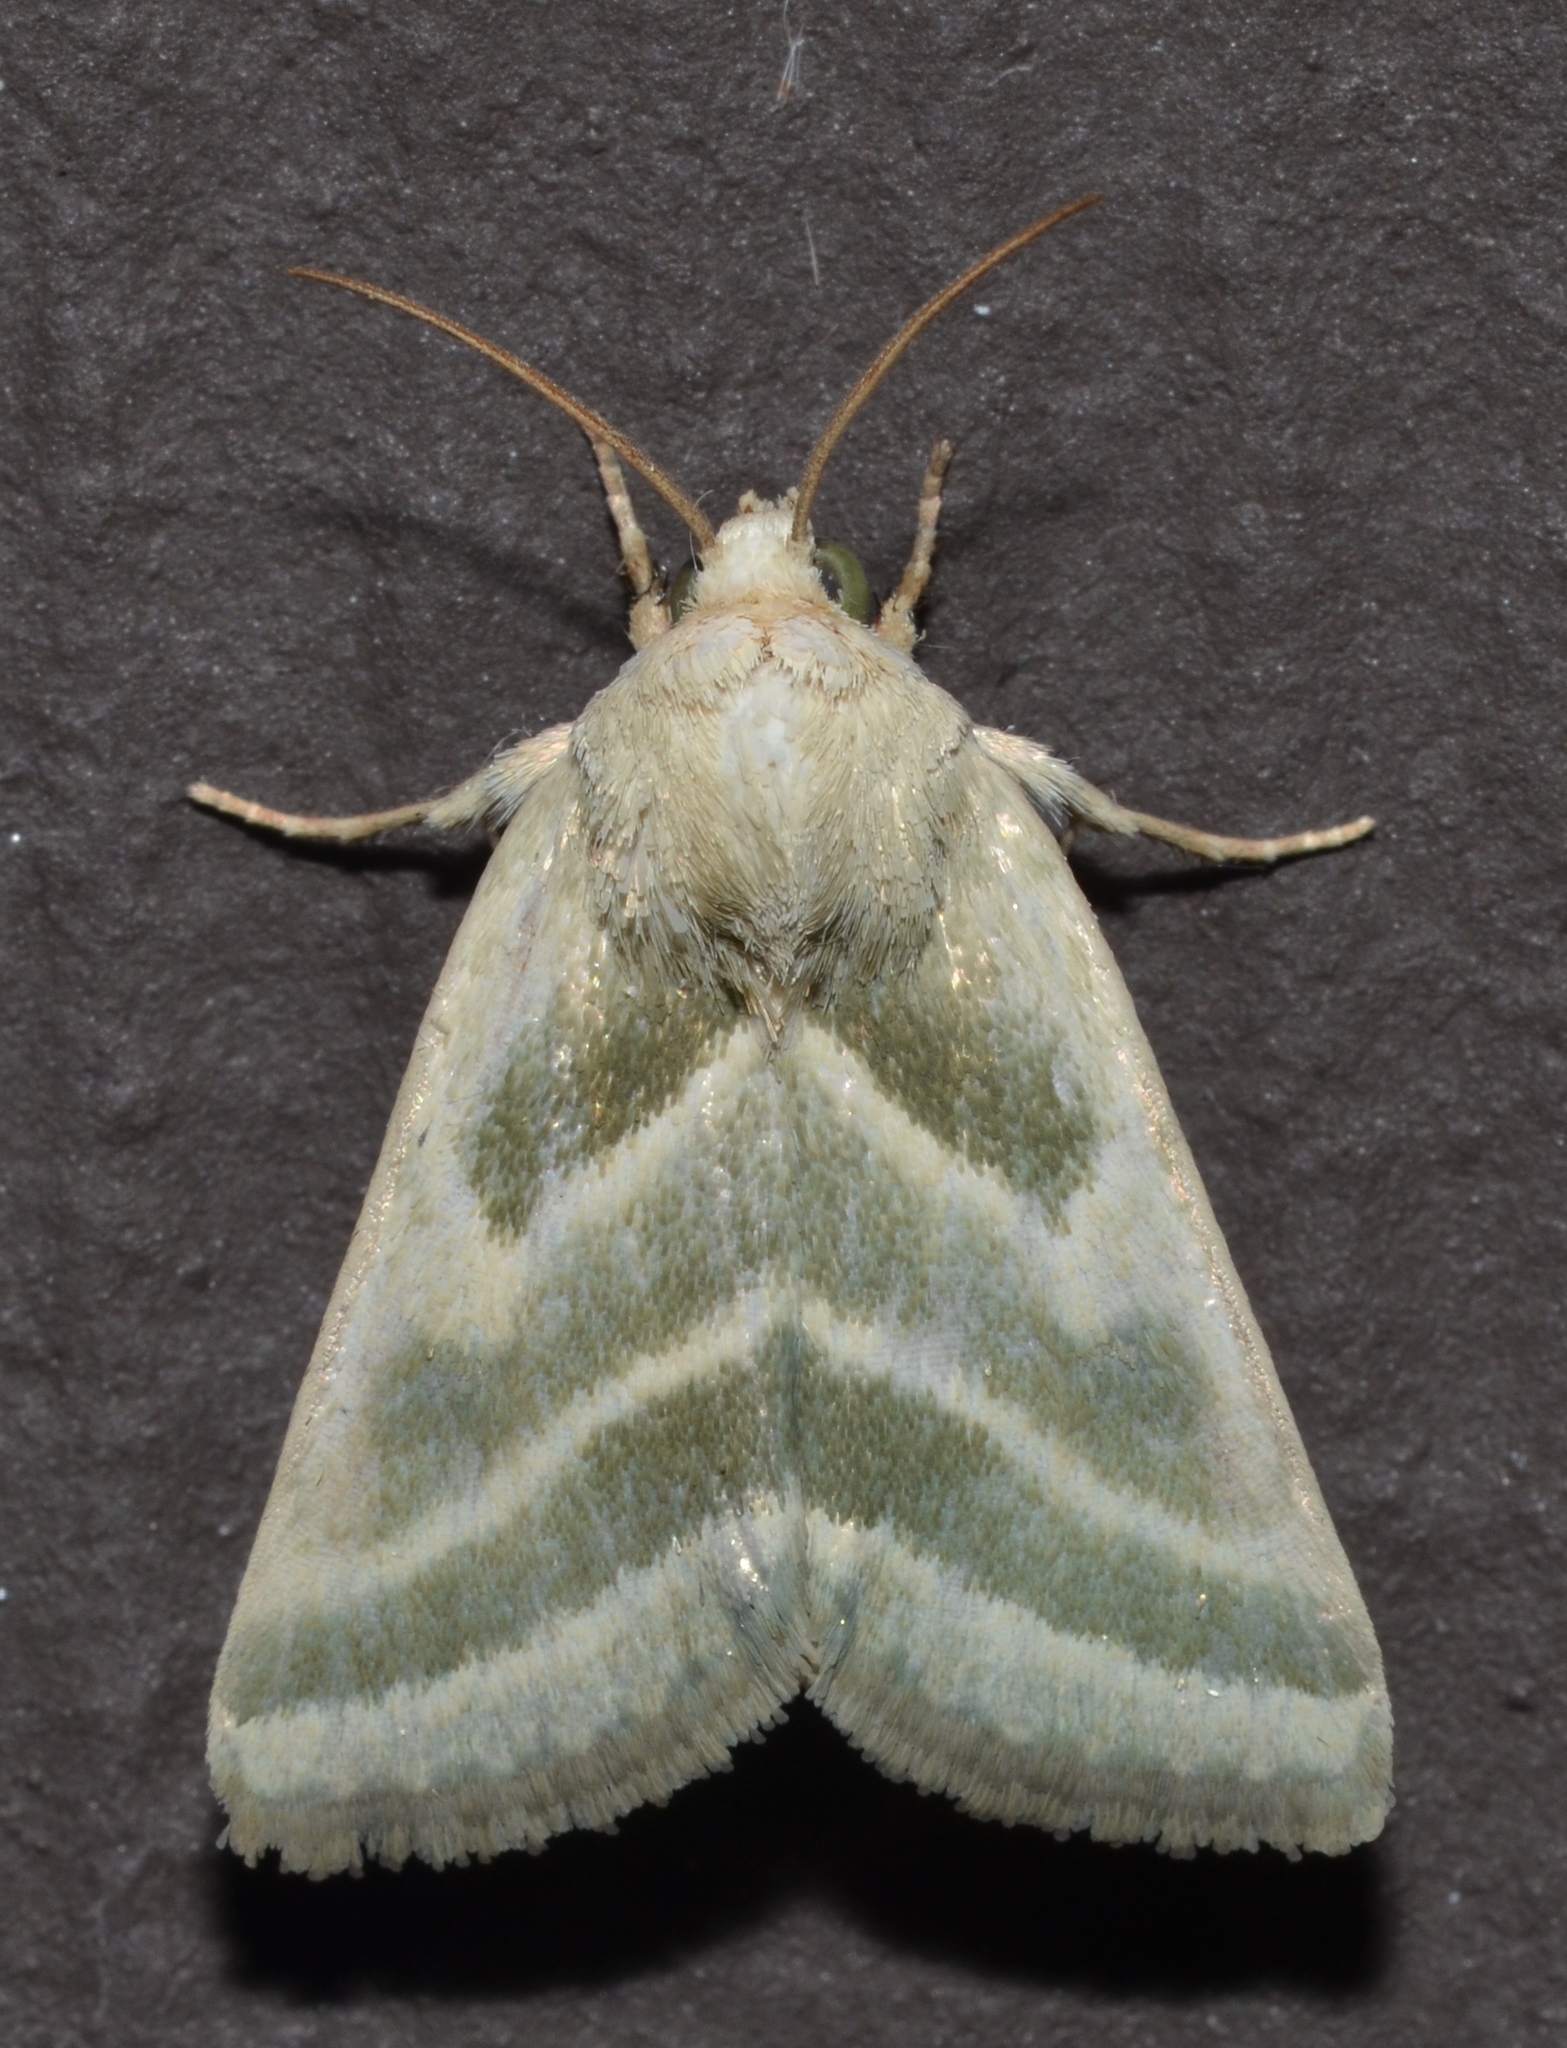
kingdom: Animalia
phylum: Arthropoda
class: Insecta
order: Lepidoptera
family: Noctuidae
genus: Schinia
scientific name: Schinia trifascia
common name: Three-lined flower moth
